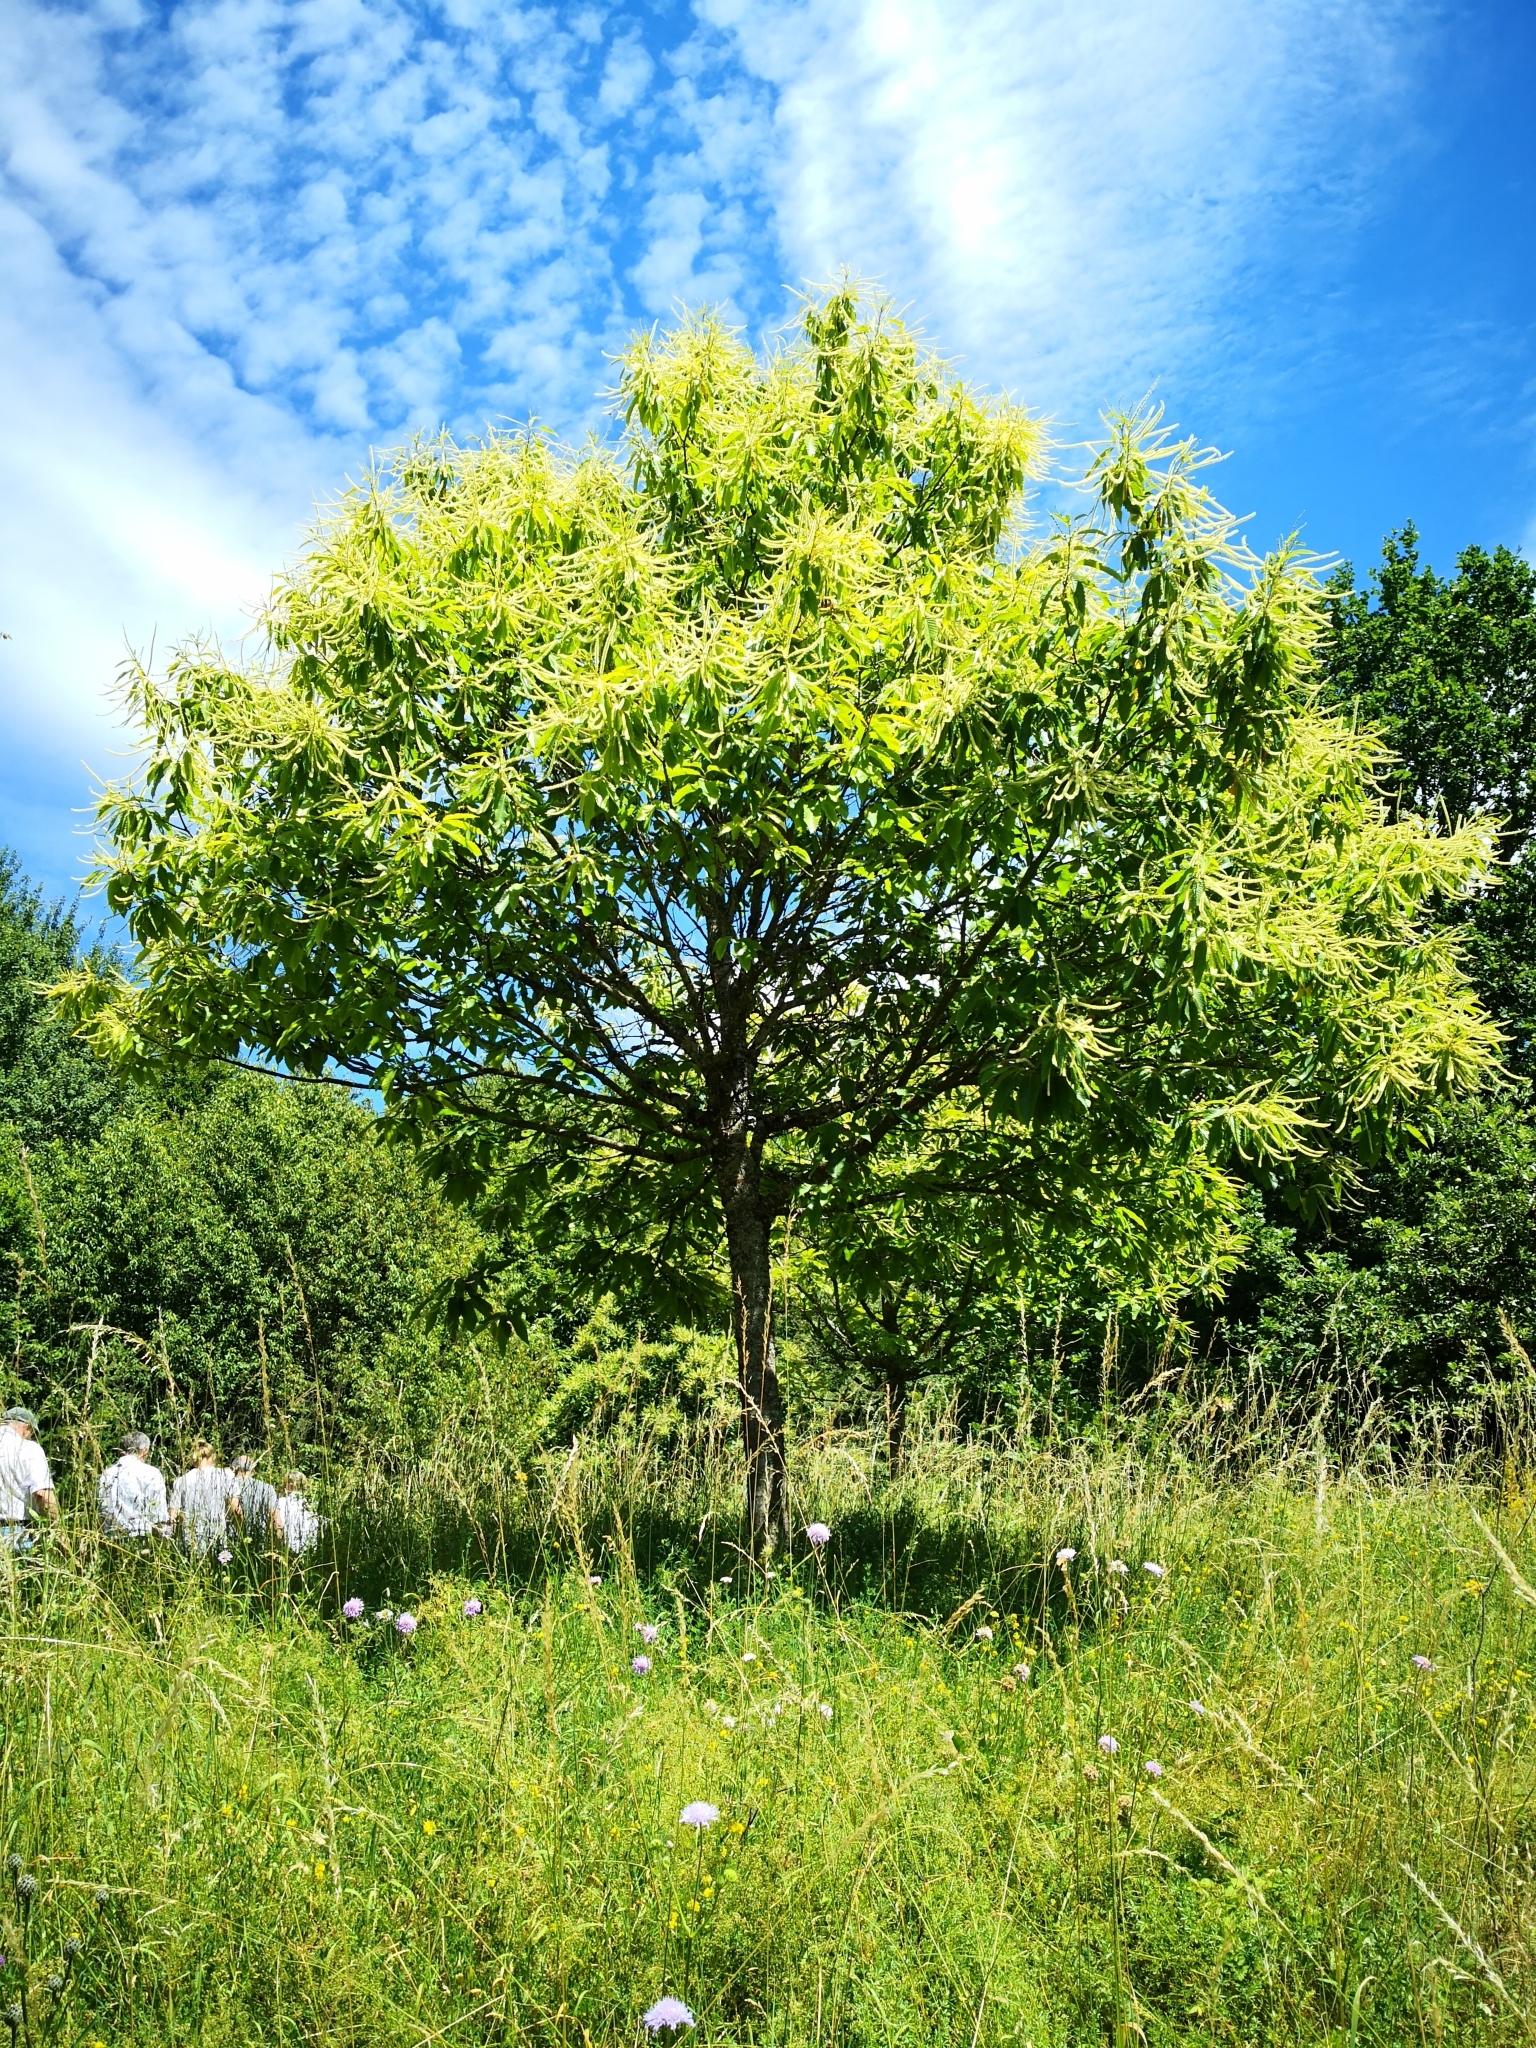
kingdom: Plantae
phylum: Tracheophyta
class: Magnoliopsida
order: Fagales
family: Fagaceae
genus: Castanea
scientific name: Castanea sativa
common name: Sweet chestnut
